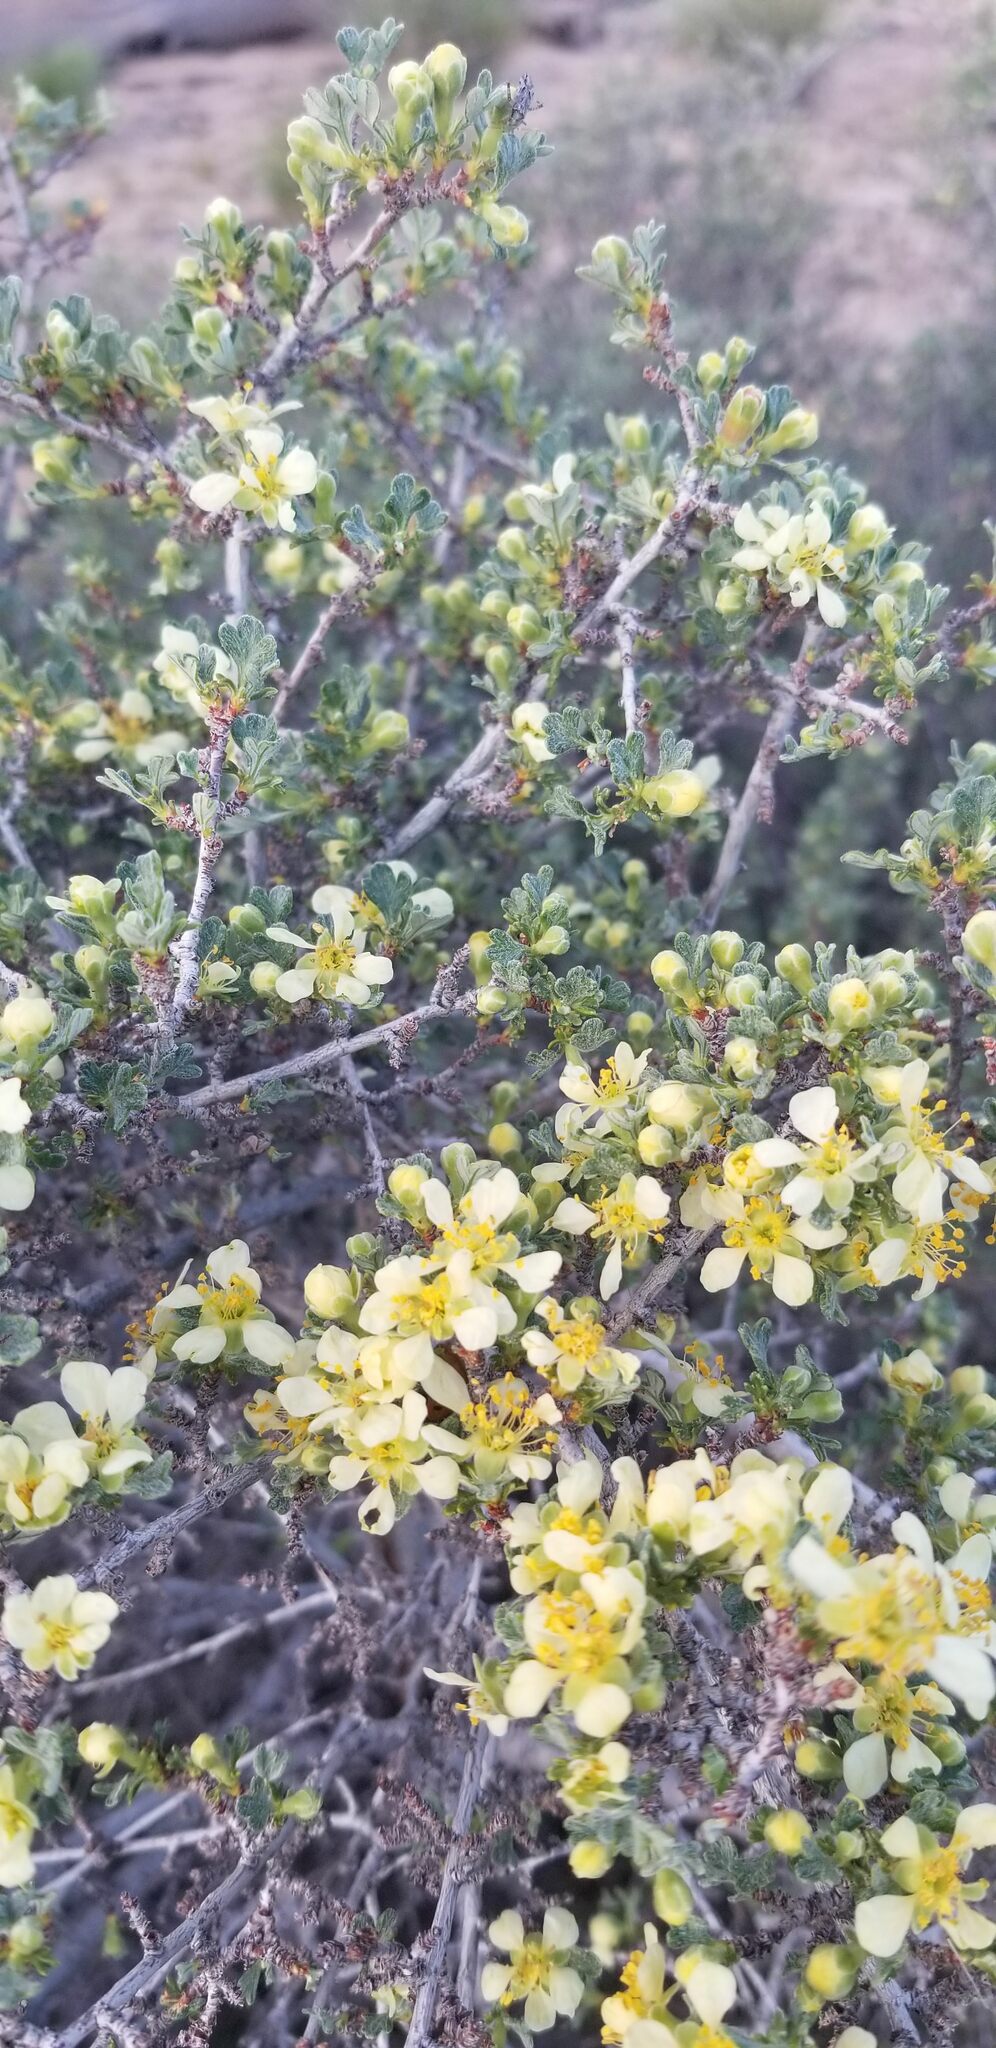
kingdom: Plantae
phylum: Tracheophyta
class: Magnoliopsida
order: Rosales
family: Rosaceae
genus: Purshia
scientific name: Purshia tridentata
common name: Antelope bitterbrush
